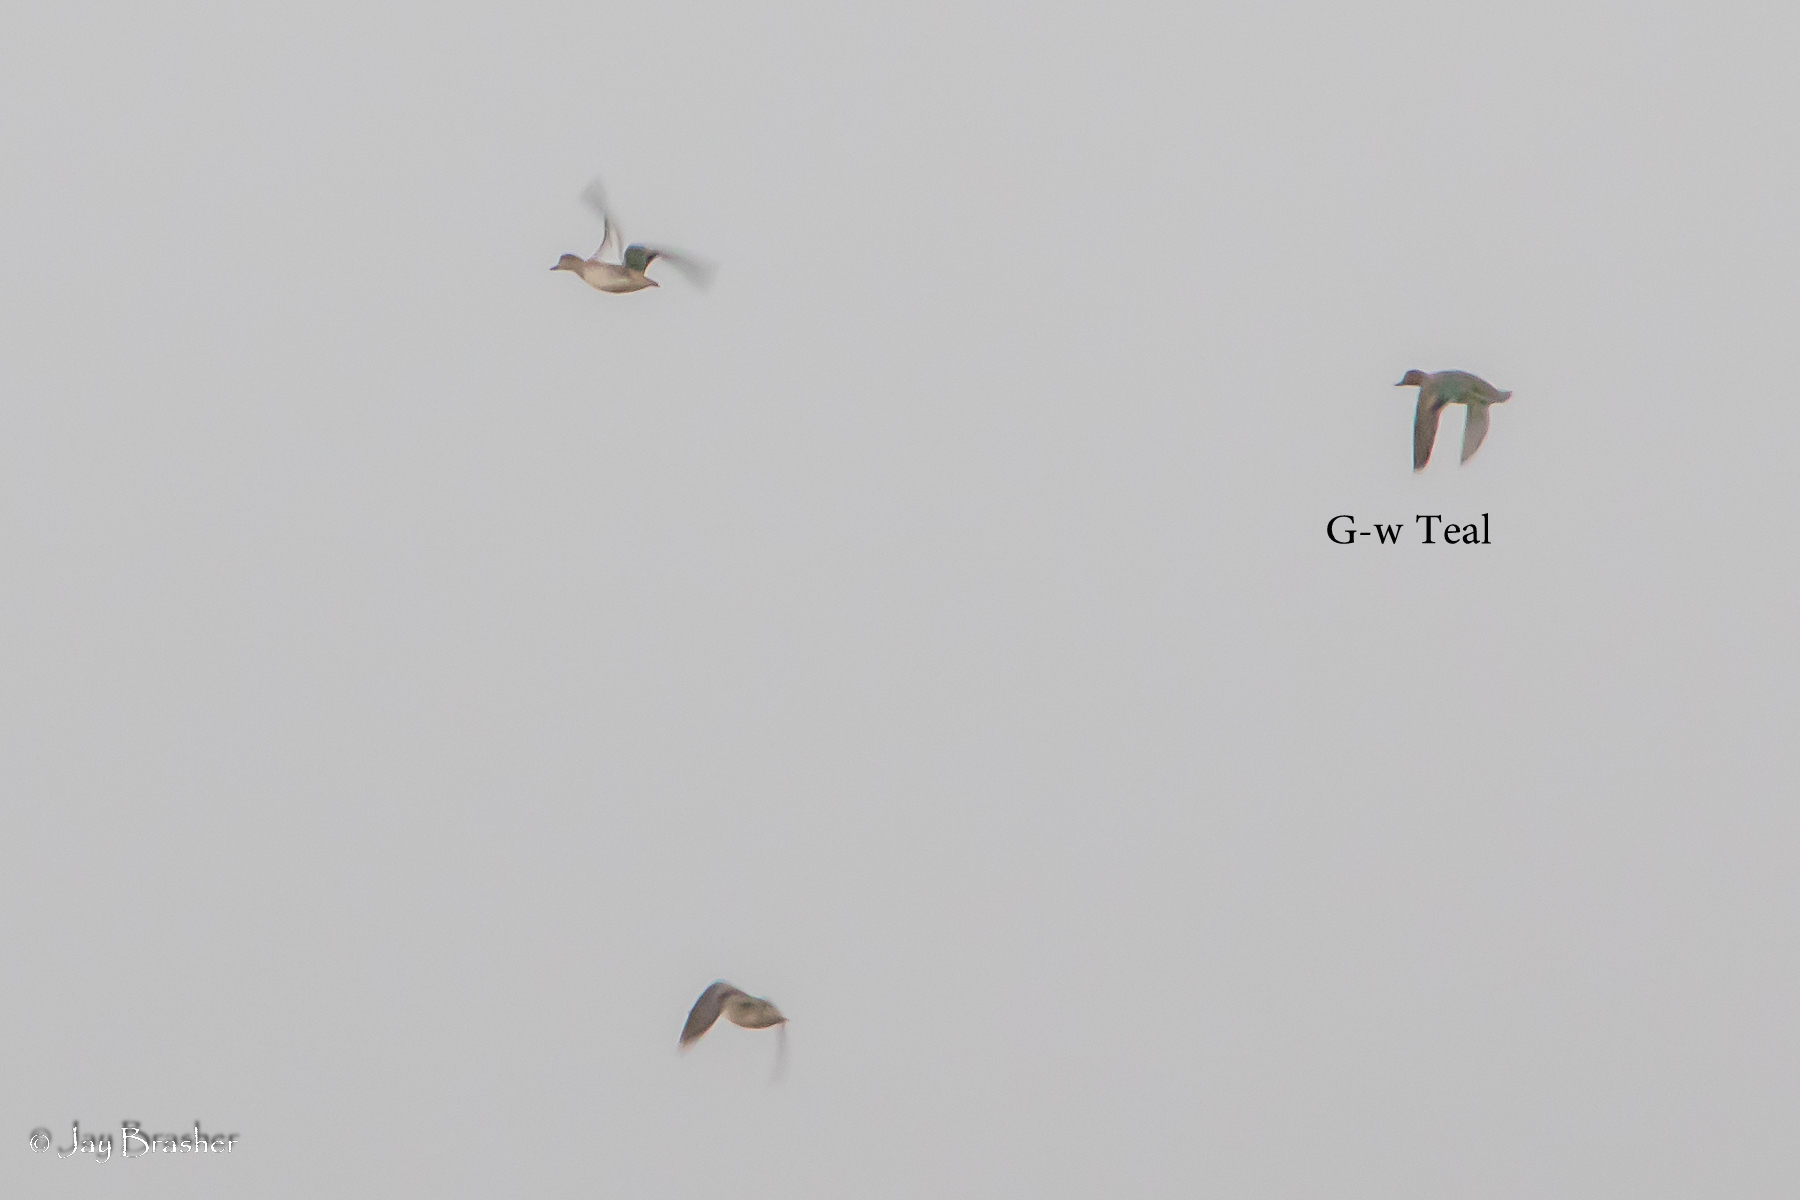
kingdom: Animalia
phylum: Chordata
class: Aves
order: Anseriformes
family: Anatidae
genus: Anas
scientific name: Anas crecca
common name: Eurasian teal
